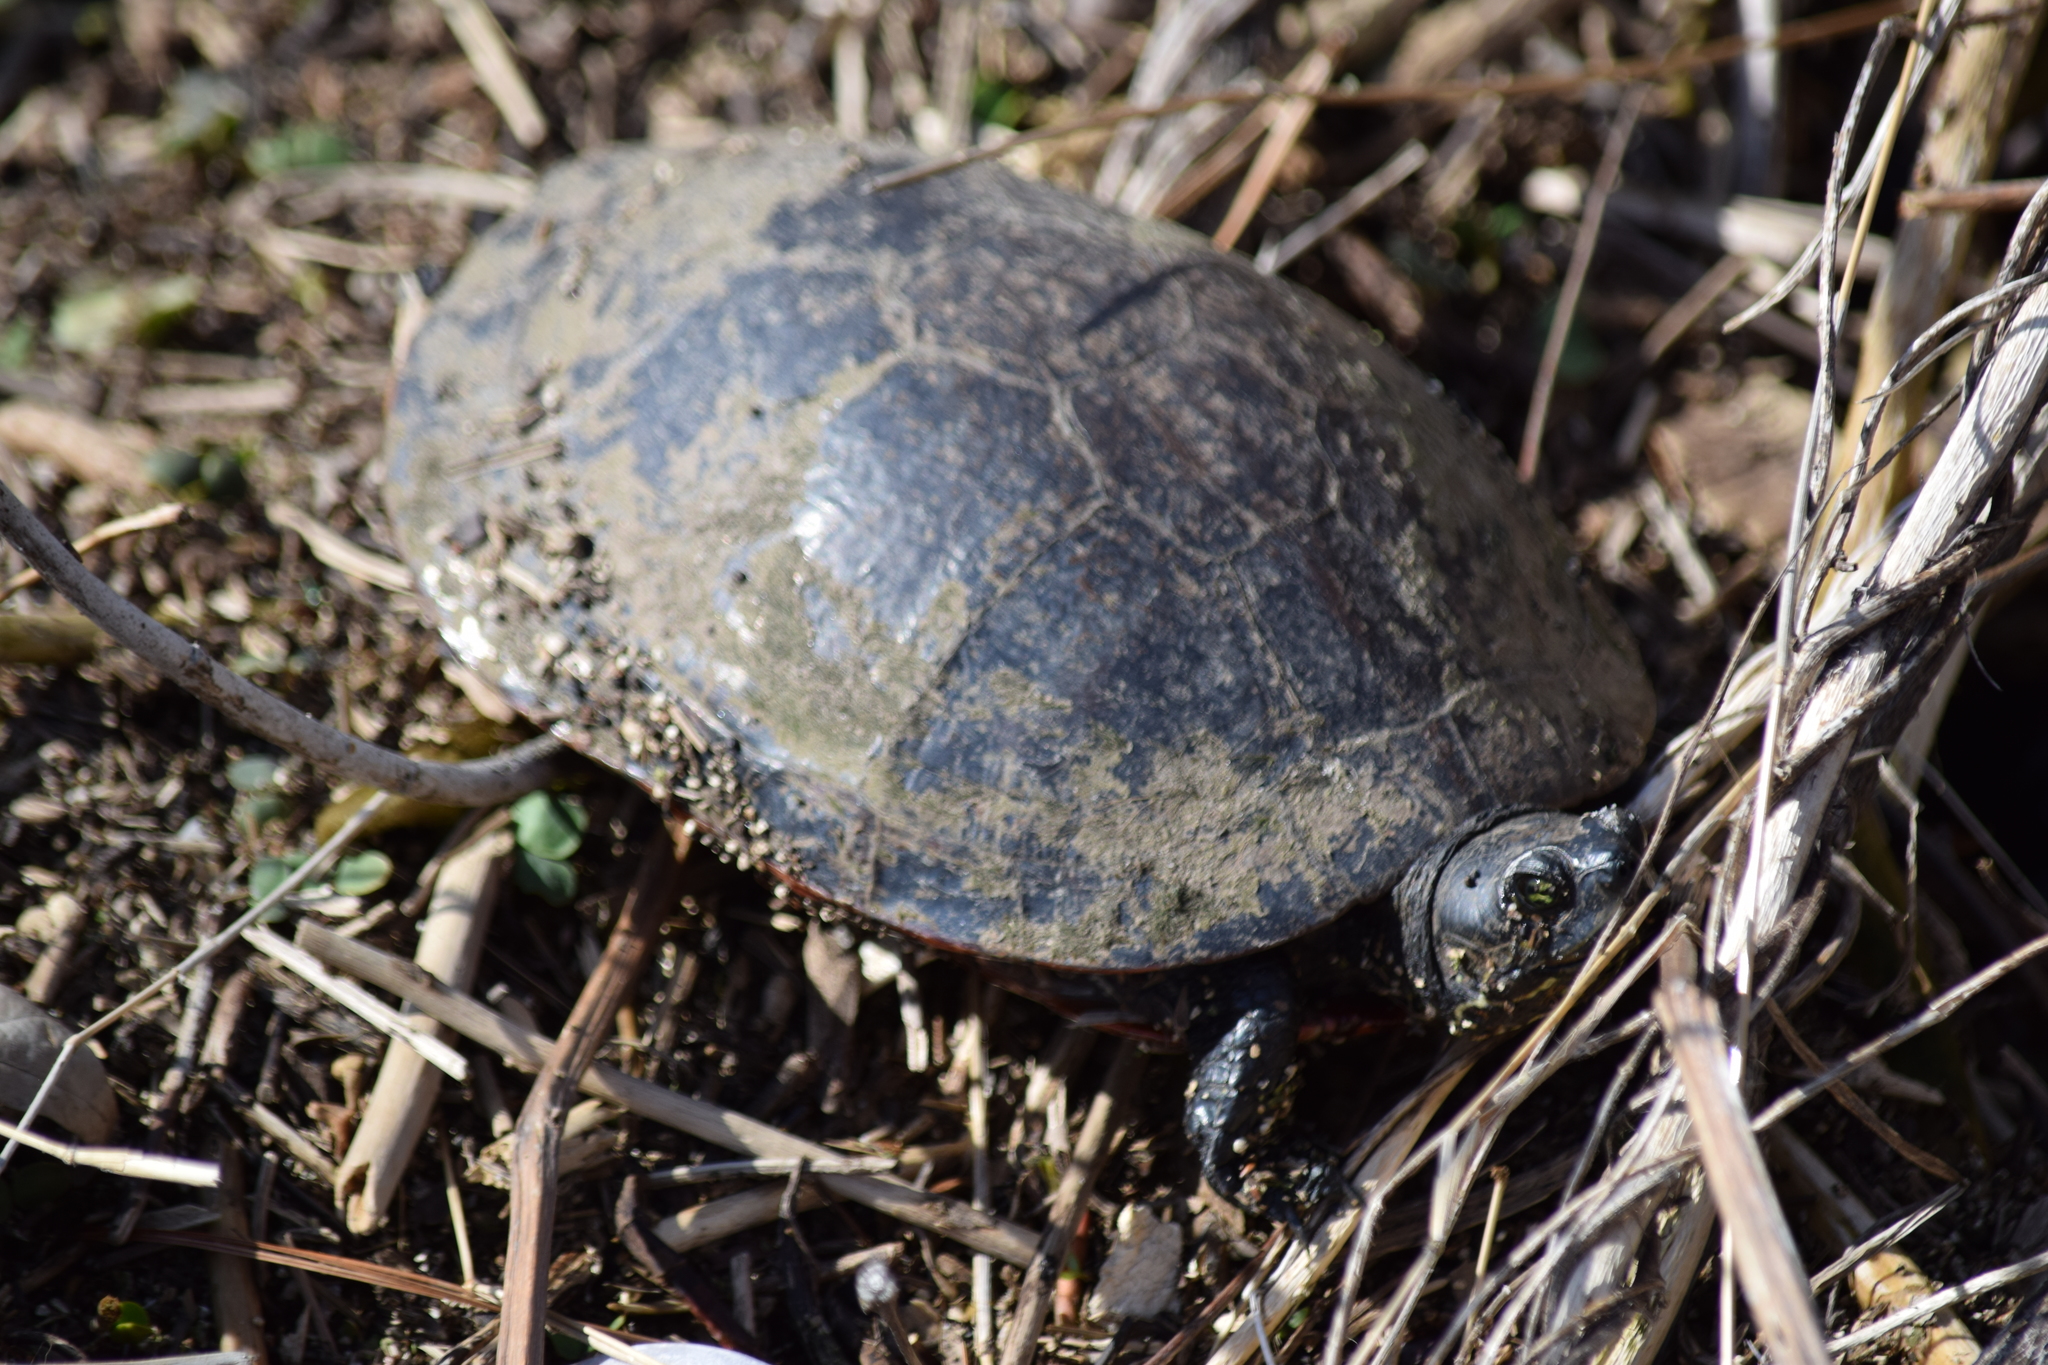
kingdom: Animalia
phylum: Chordata
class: Testudines
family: Emydidae
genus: Pseudemys
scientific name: Pseudemys rubriventris
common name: American red-bellied turtle
